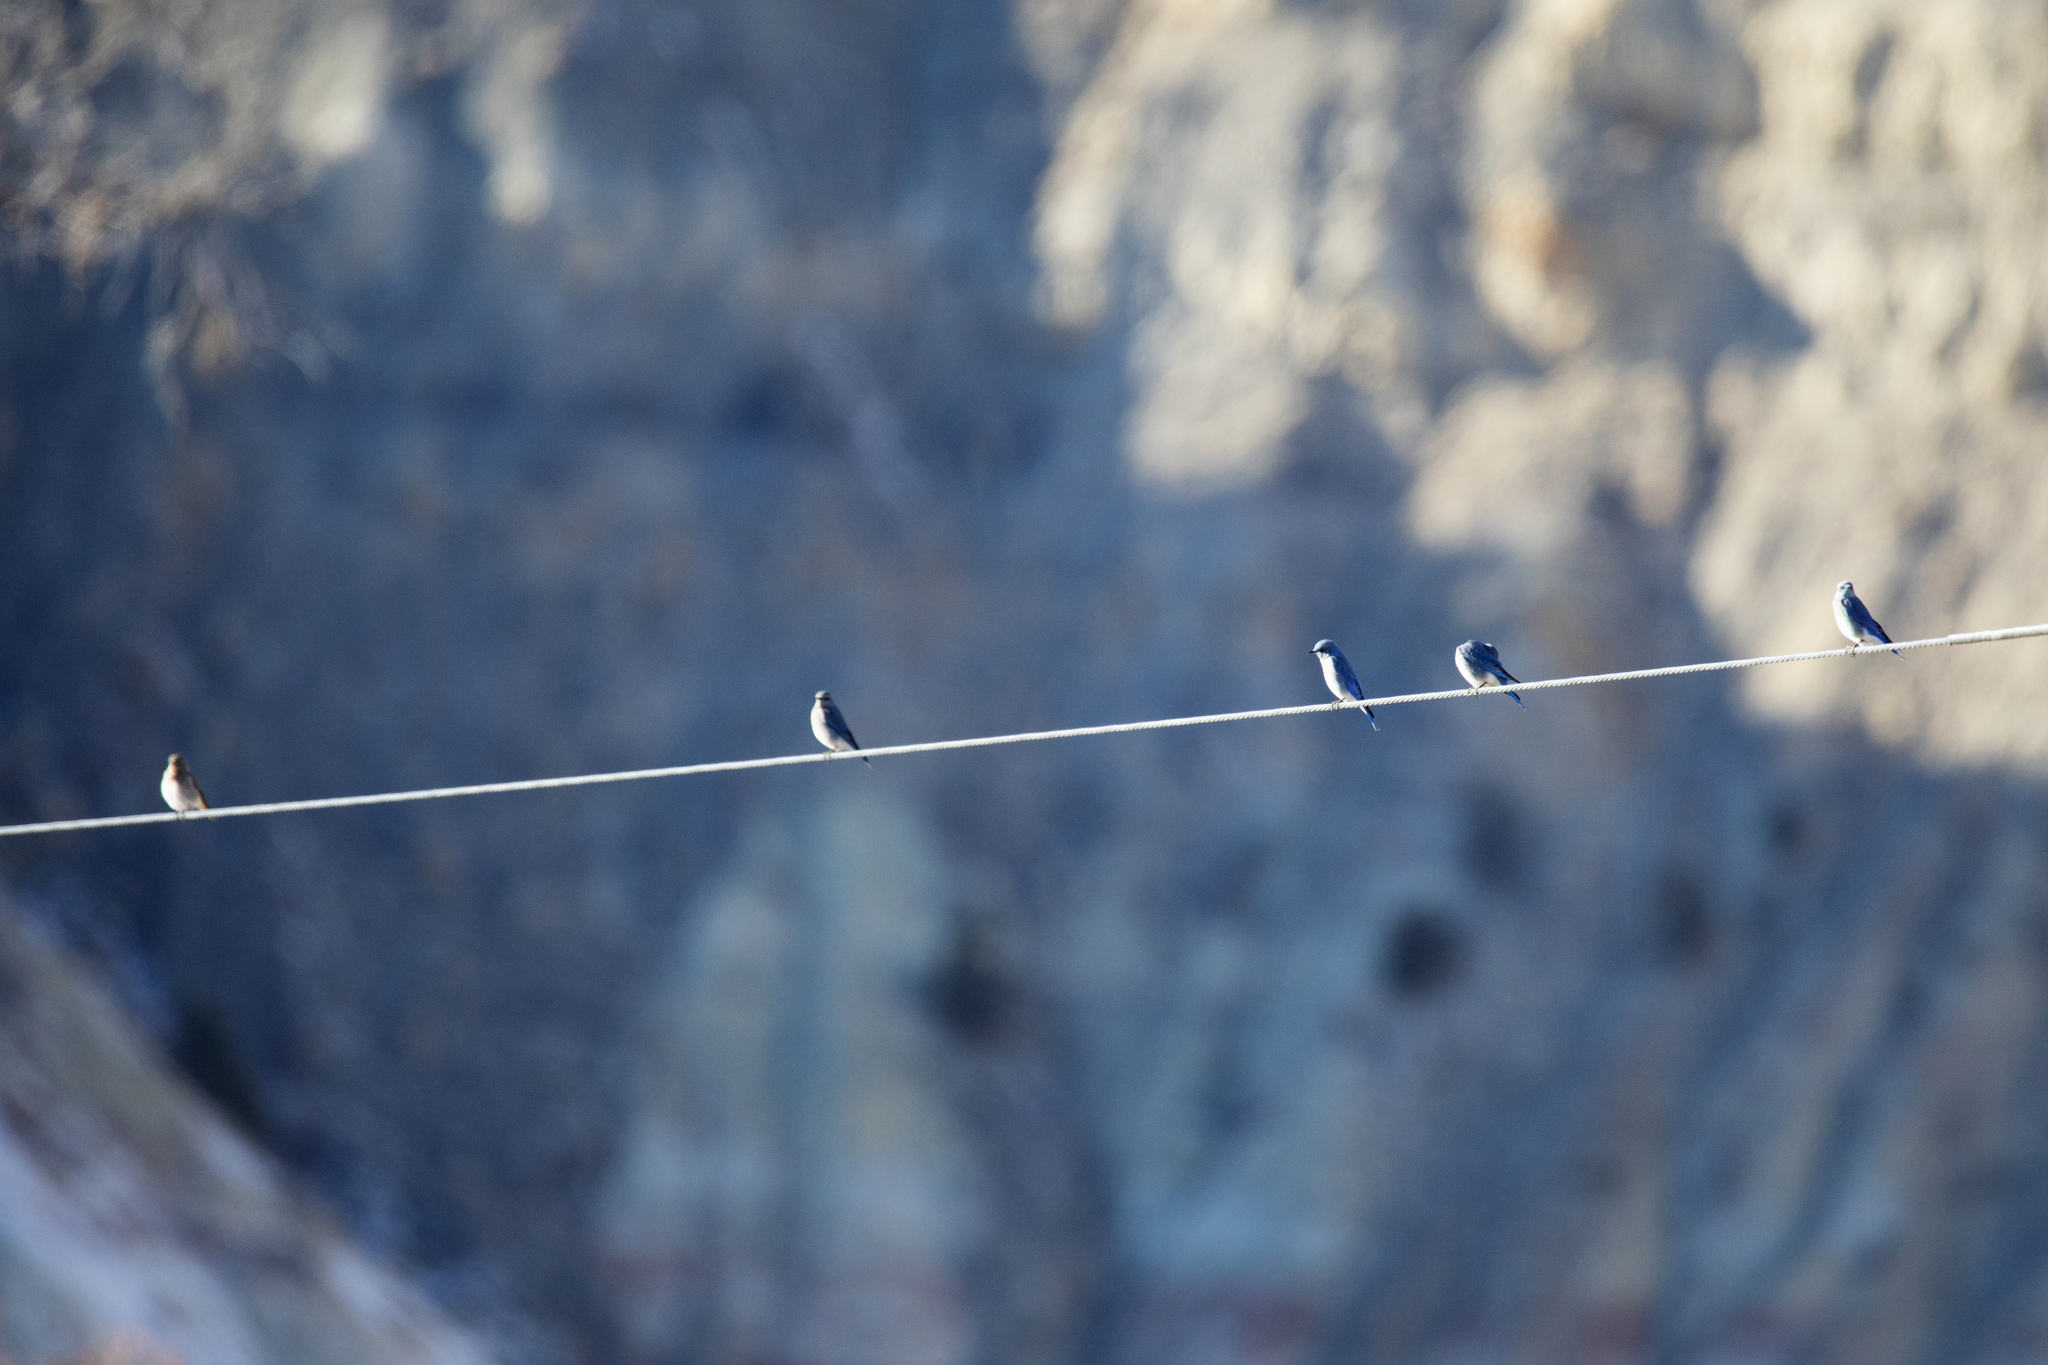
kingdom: Animalia
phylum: Chordata
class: Aves
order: Passeriformes
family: Turdidae
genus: Sialia
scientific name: Sialia currucoides
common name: Mountain bluebird
